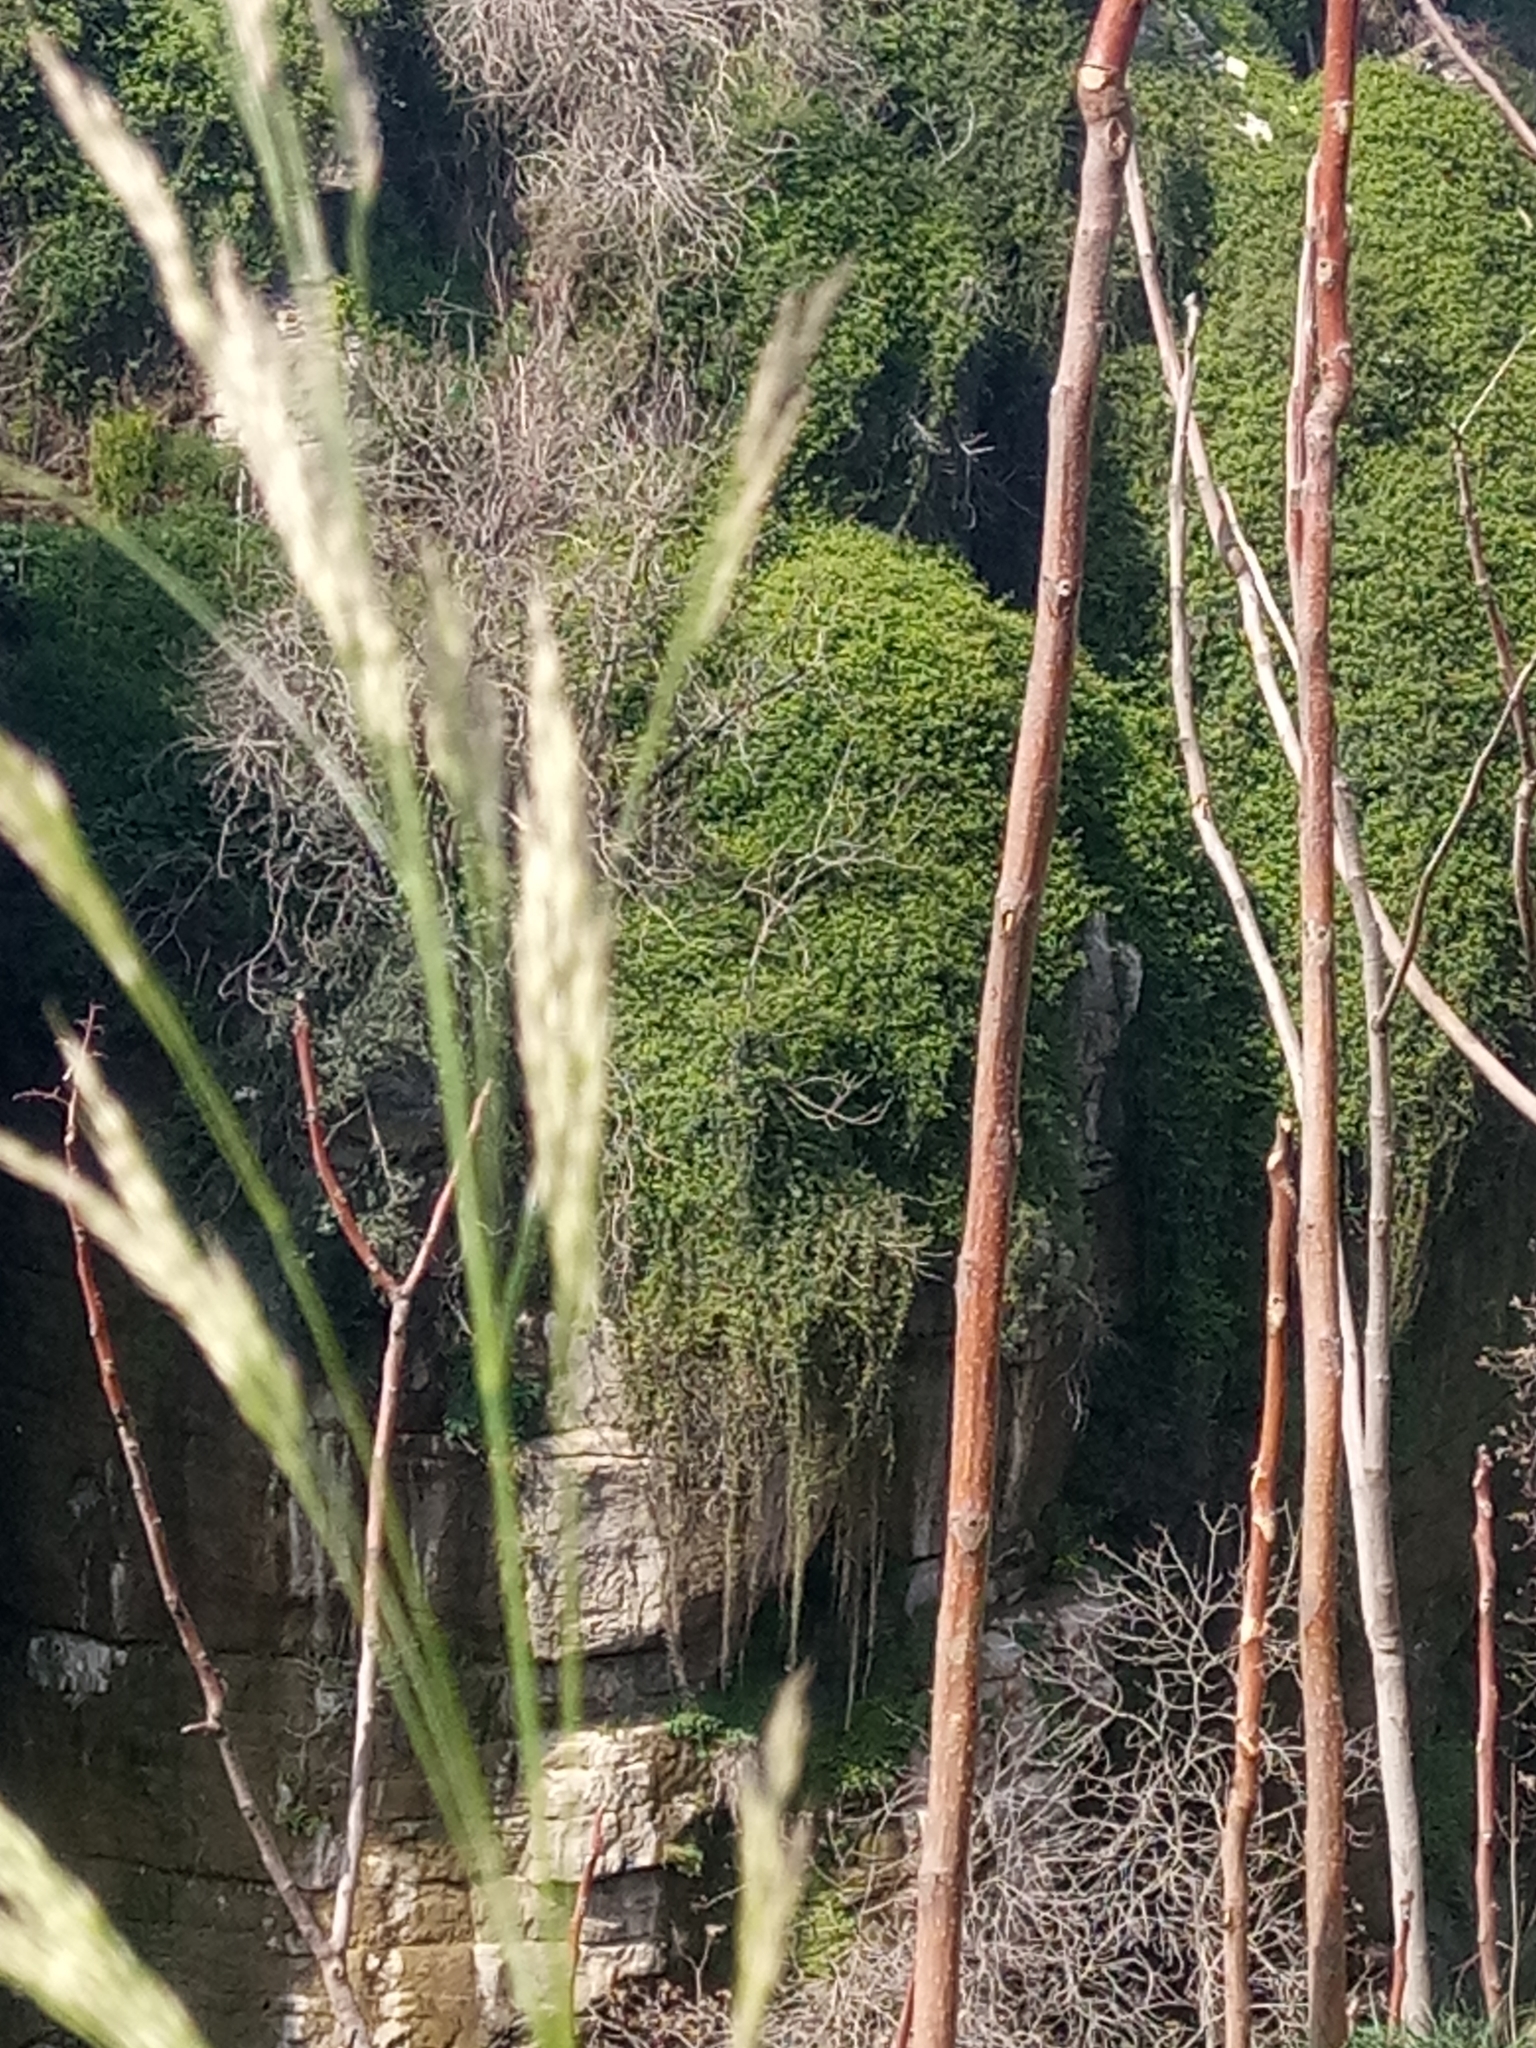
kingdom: Plantae
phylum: Tracheophyta
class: Liliopsida
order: Poales
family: Poaceae
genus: Oloptum
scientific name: Oloptum miliaceum
